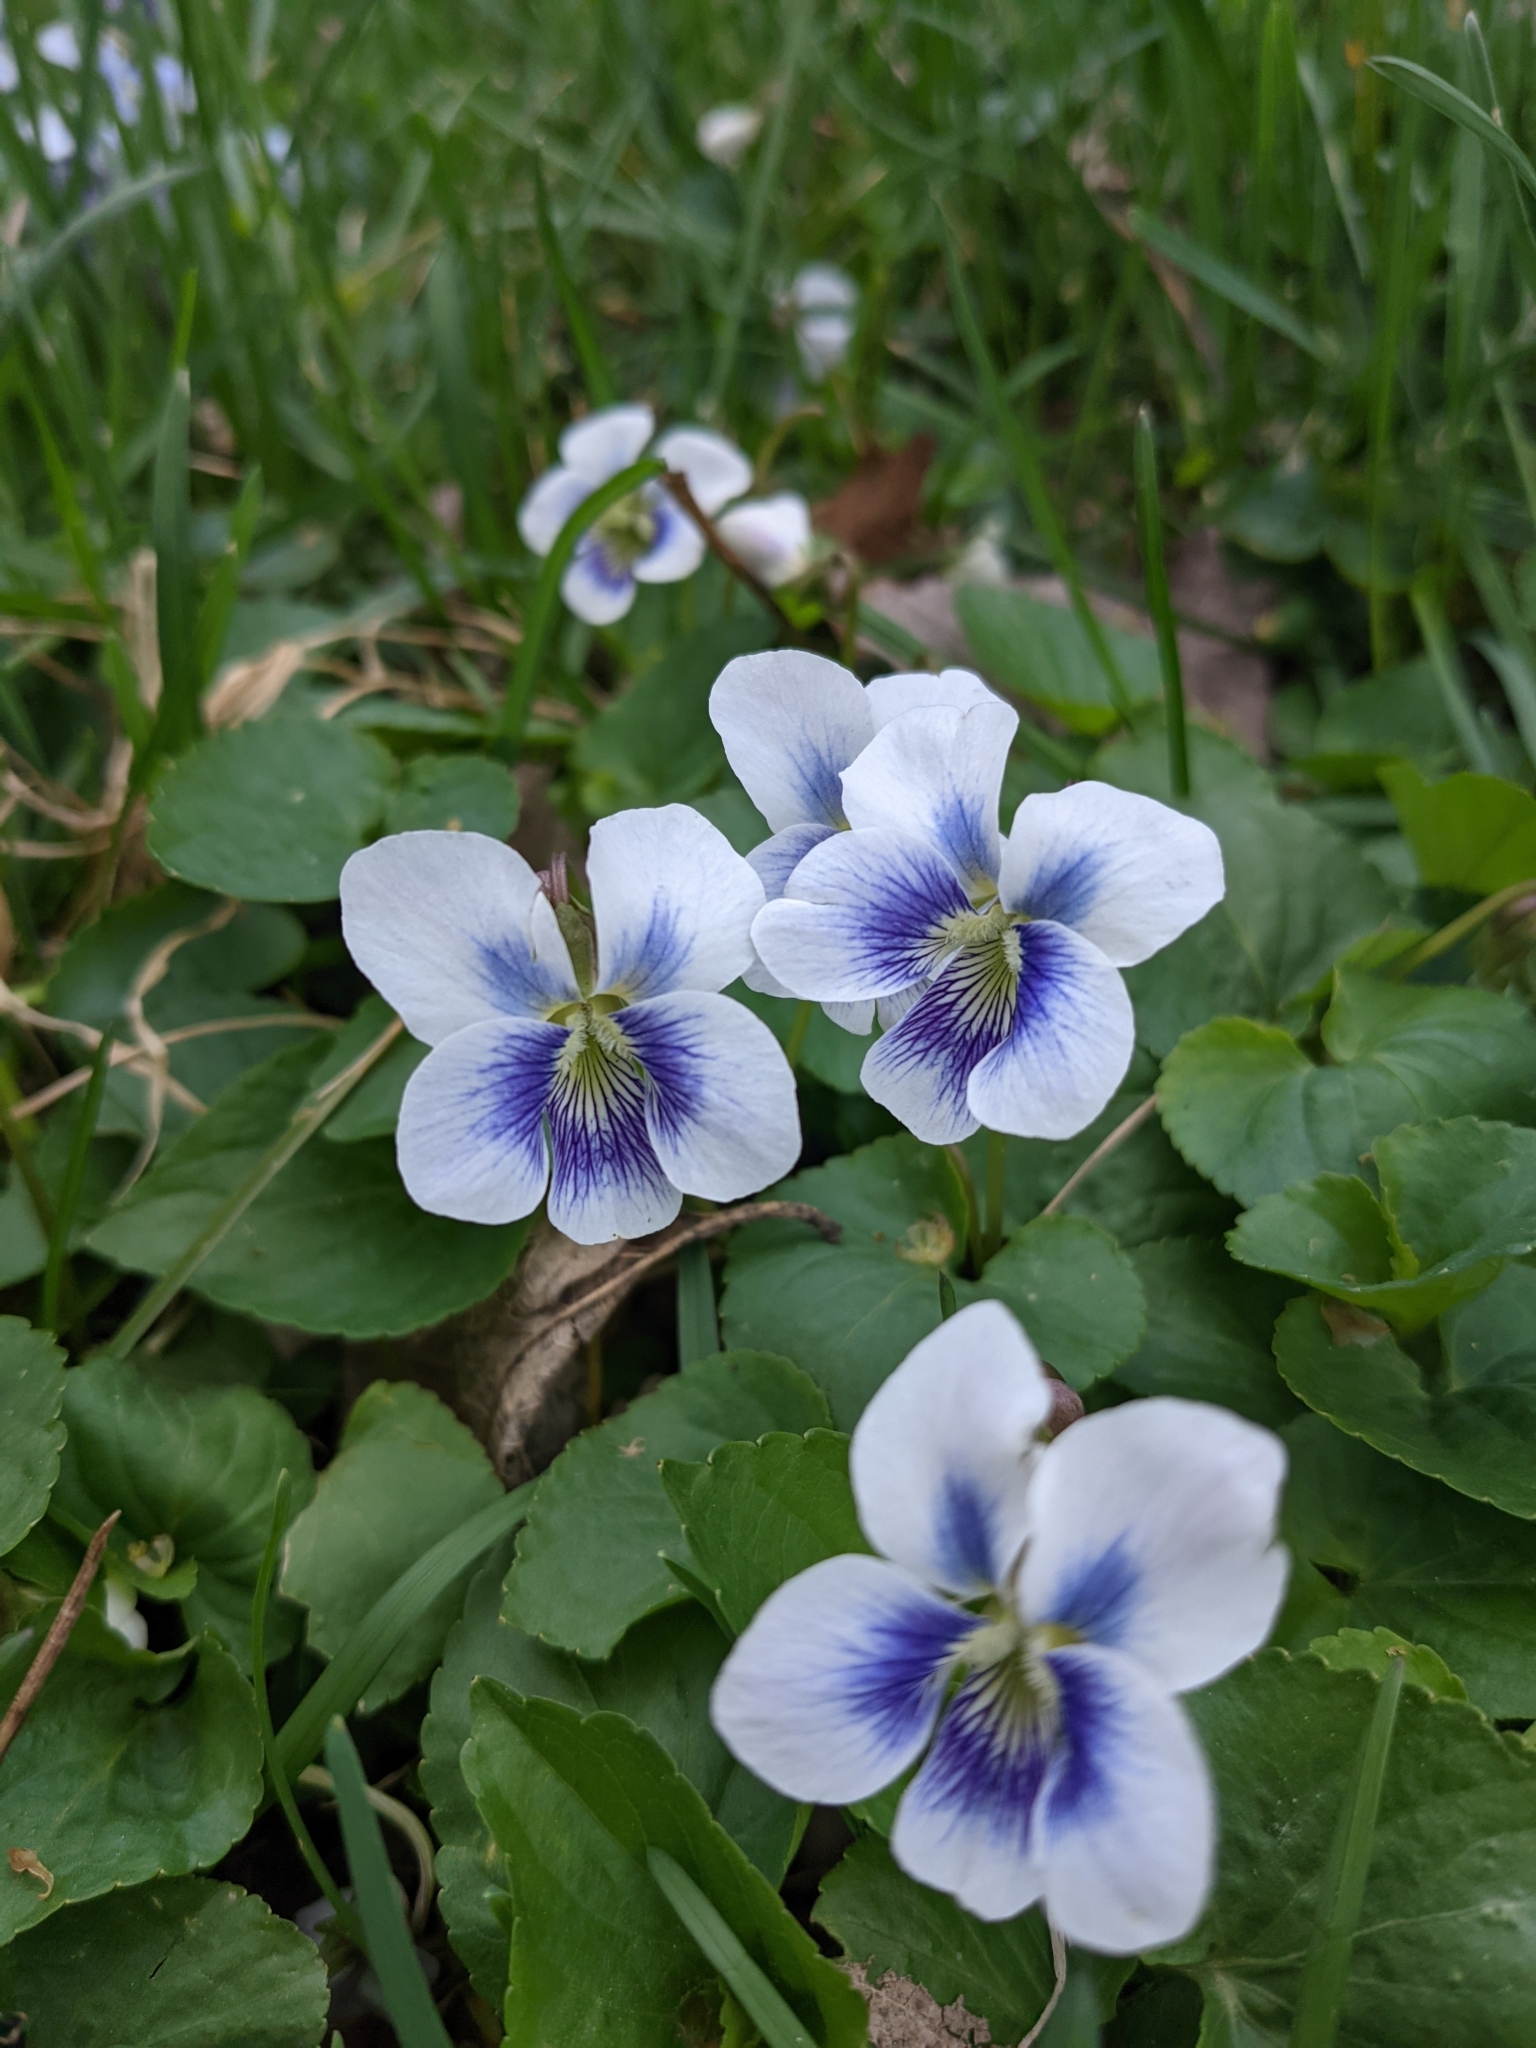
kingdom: Plantae
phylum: Tracheophyta
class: Magnoliopsida
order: Malpighiales
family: Violaceae
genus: Viola
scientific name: Viola sororia
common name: Dooryard violet
